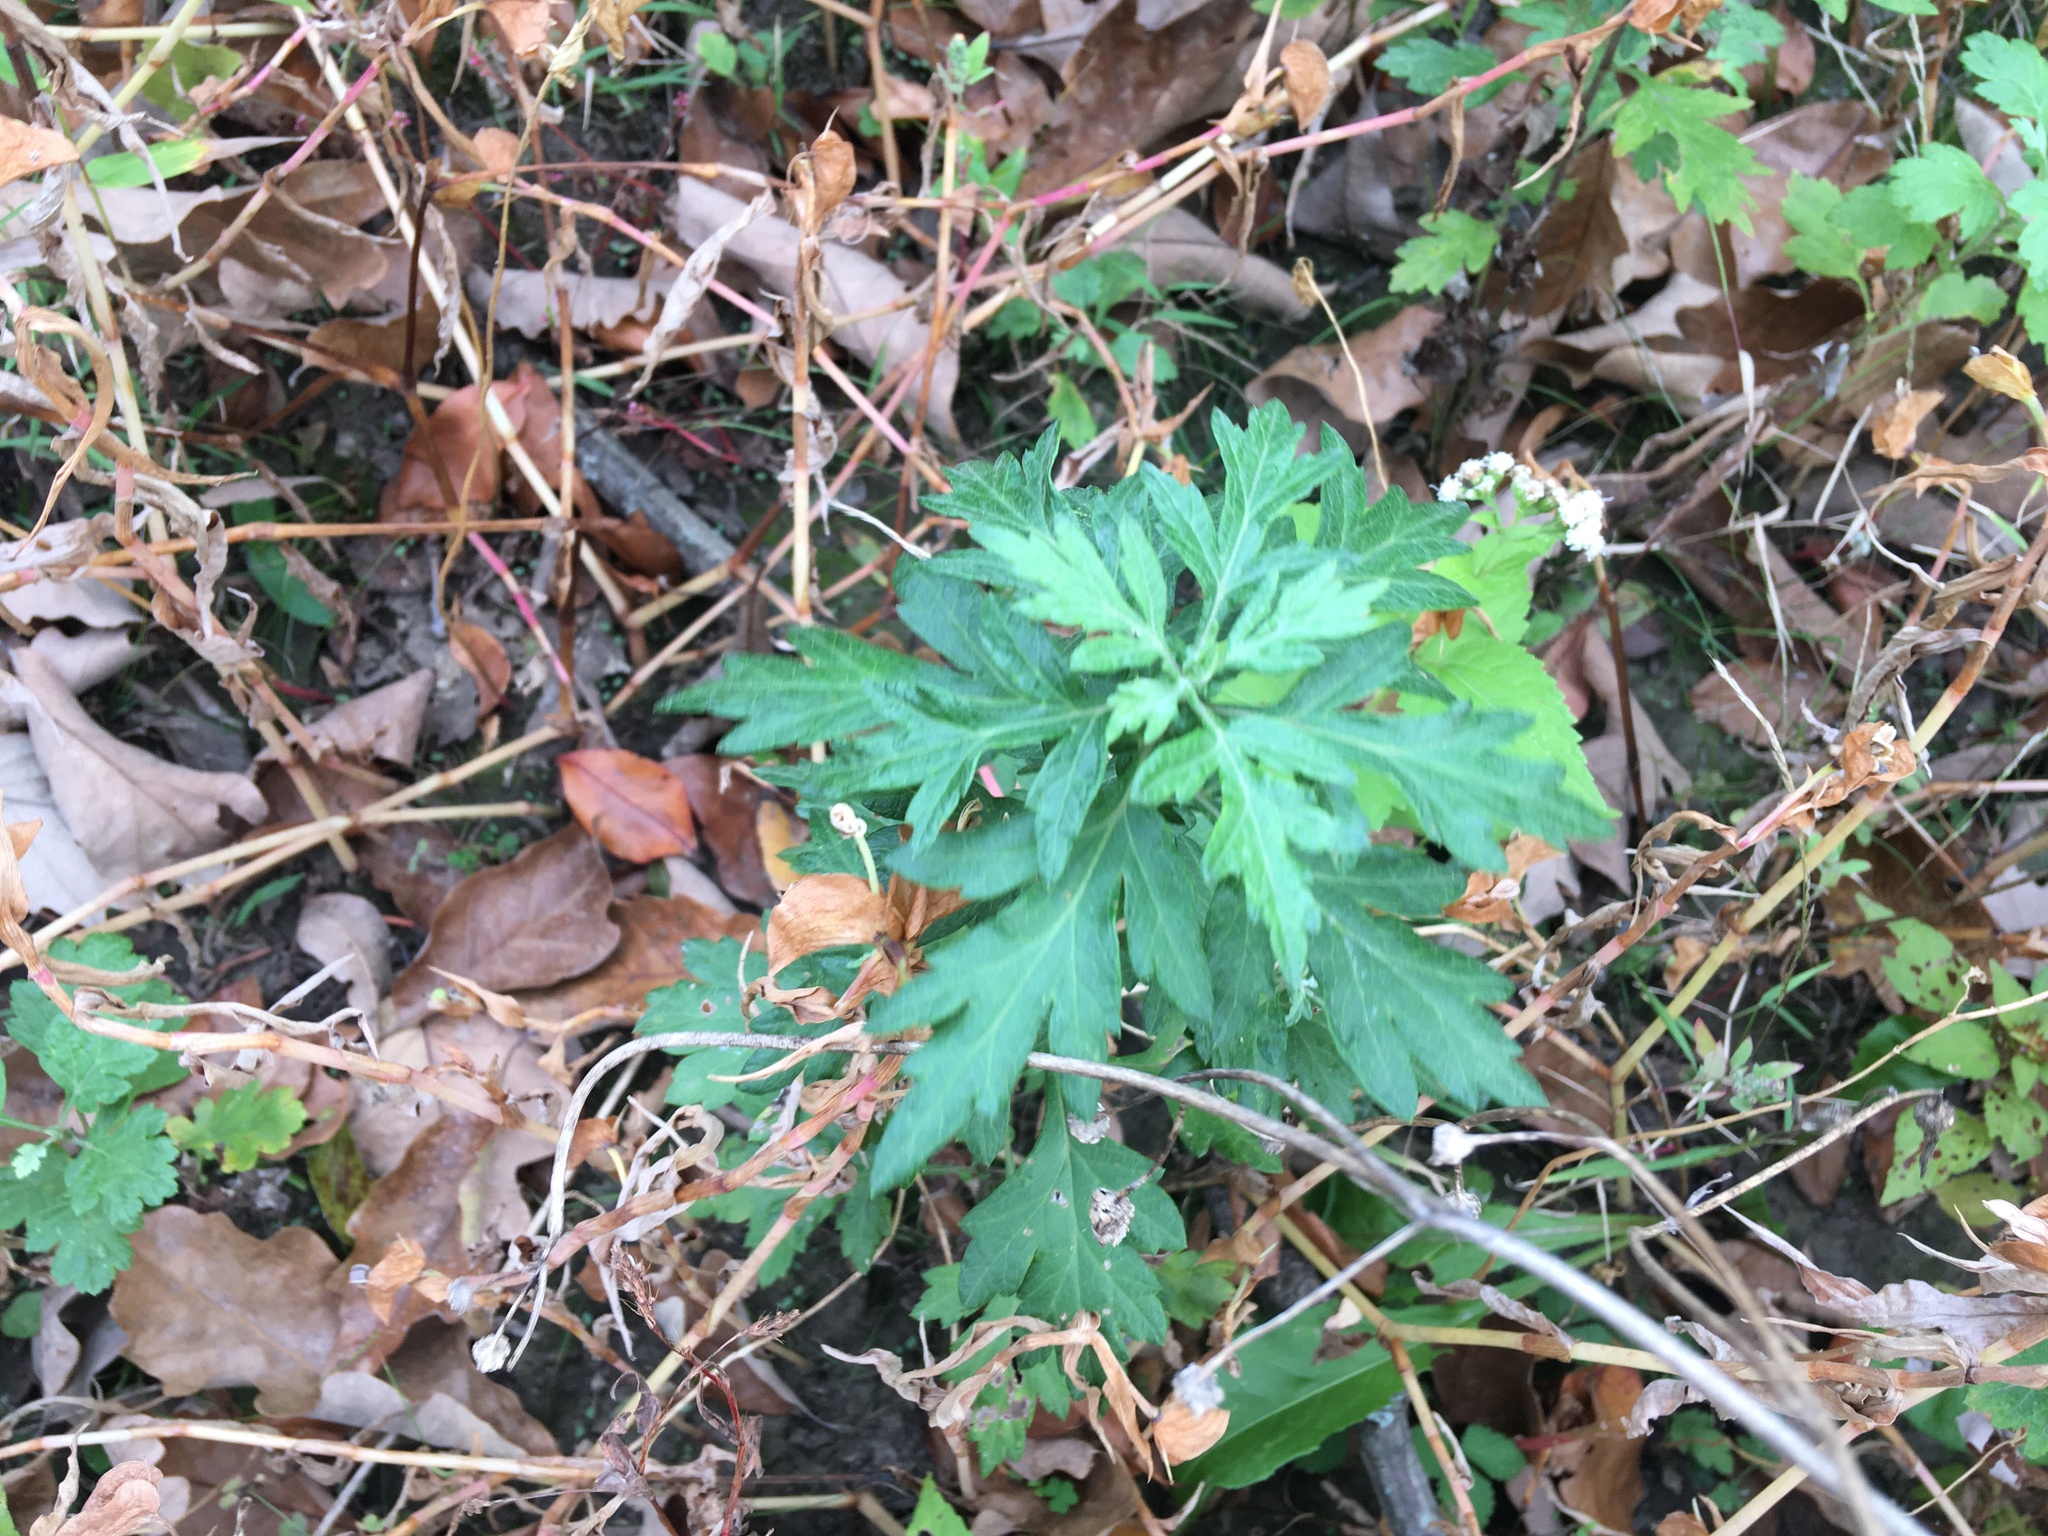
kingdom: Plantae
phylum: Tracheophyta
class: Magnoliopsida
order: Asterales
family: Asteraceae
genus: Artemisia
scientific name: Artemisia vulgaris
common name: Mugwort
